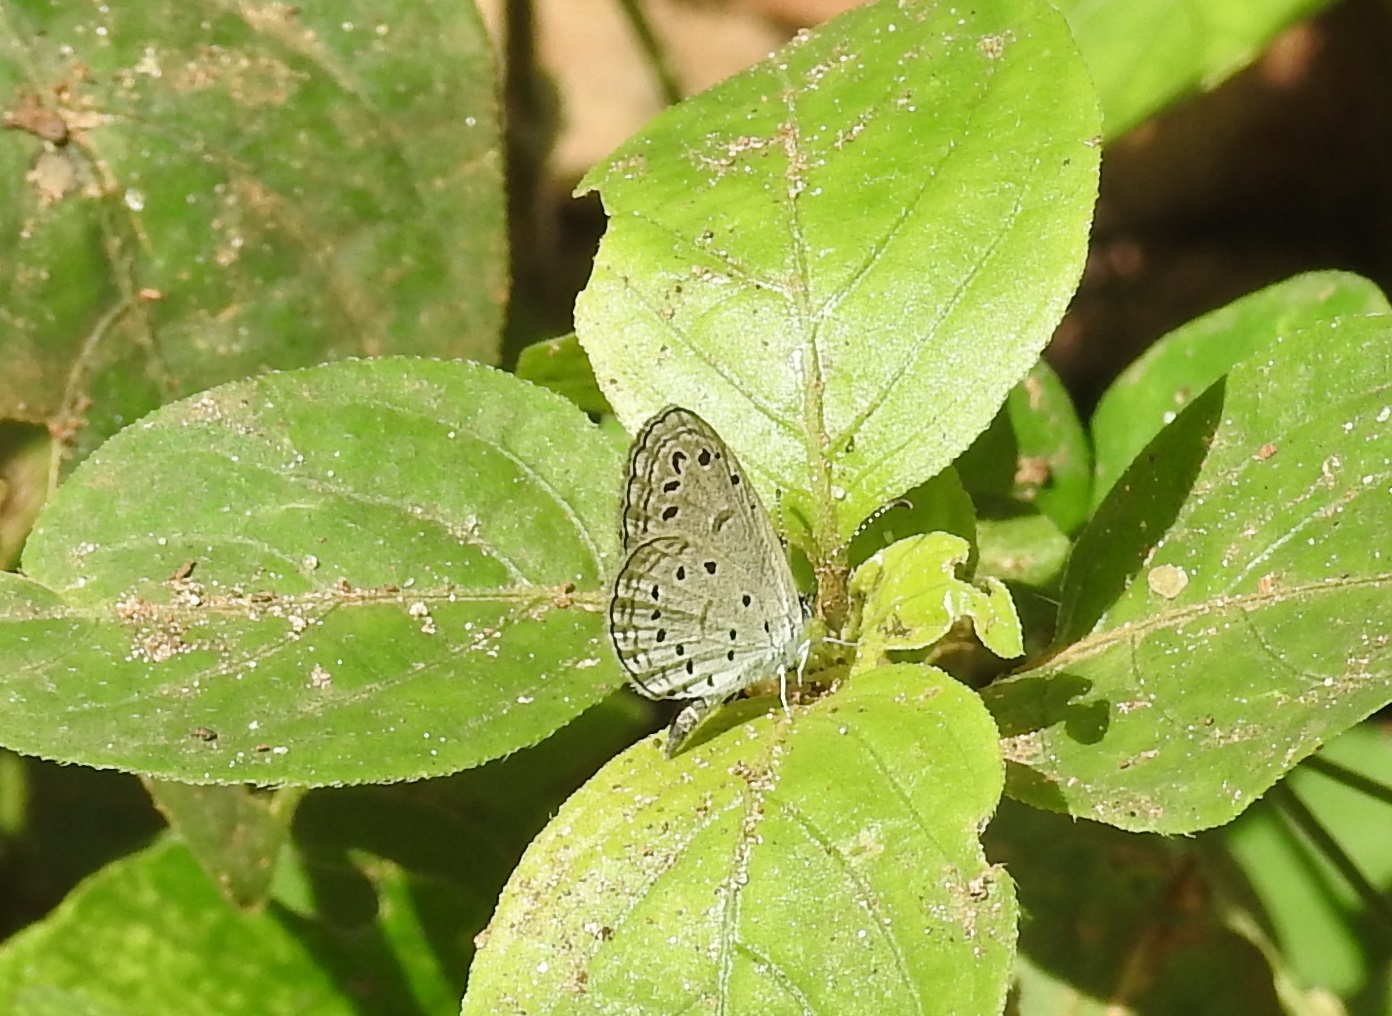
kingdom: Animalia
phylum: Arthropoda
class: Insecta
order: Lepidoptera
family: Lycaenidae
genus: Zizula
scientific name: Zizula hylax
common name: Gaika blue
